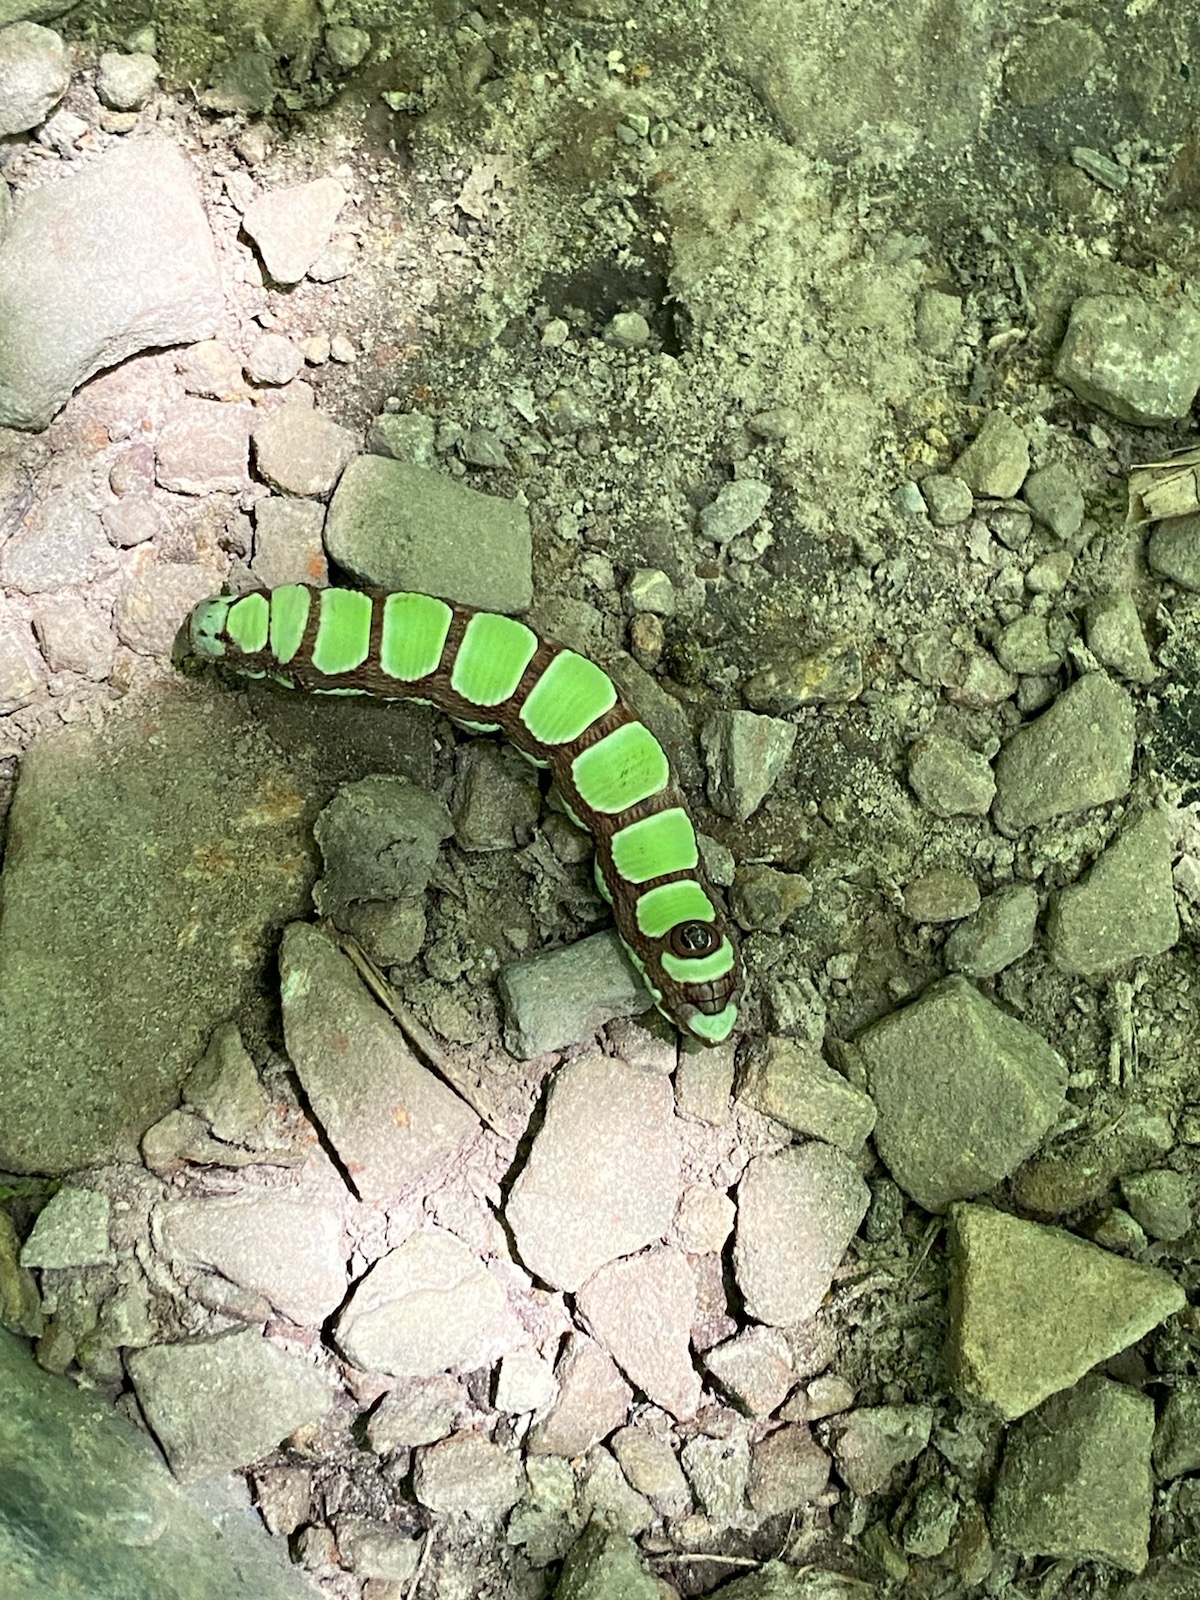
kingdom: Animalia
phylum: Arthropoda
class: Insecta
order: Lepidoptera
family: Sphingidae
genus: Sphecodina
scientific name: Sphecodina abbottii
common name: Abbott's sphinx
